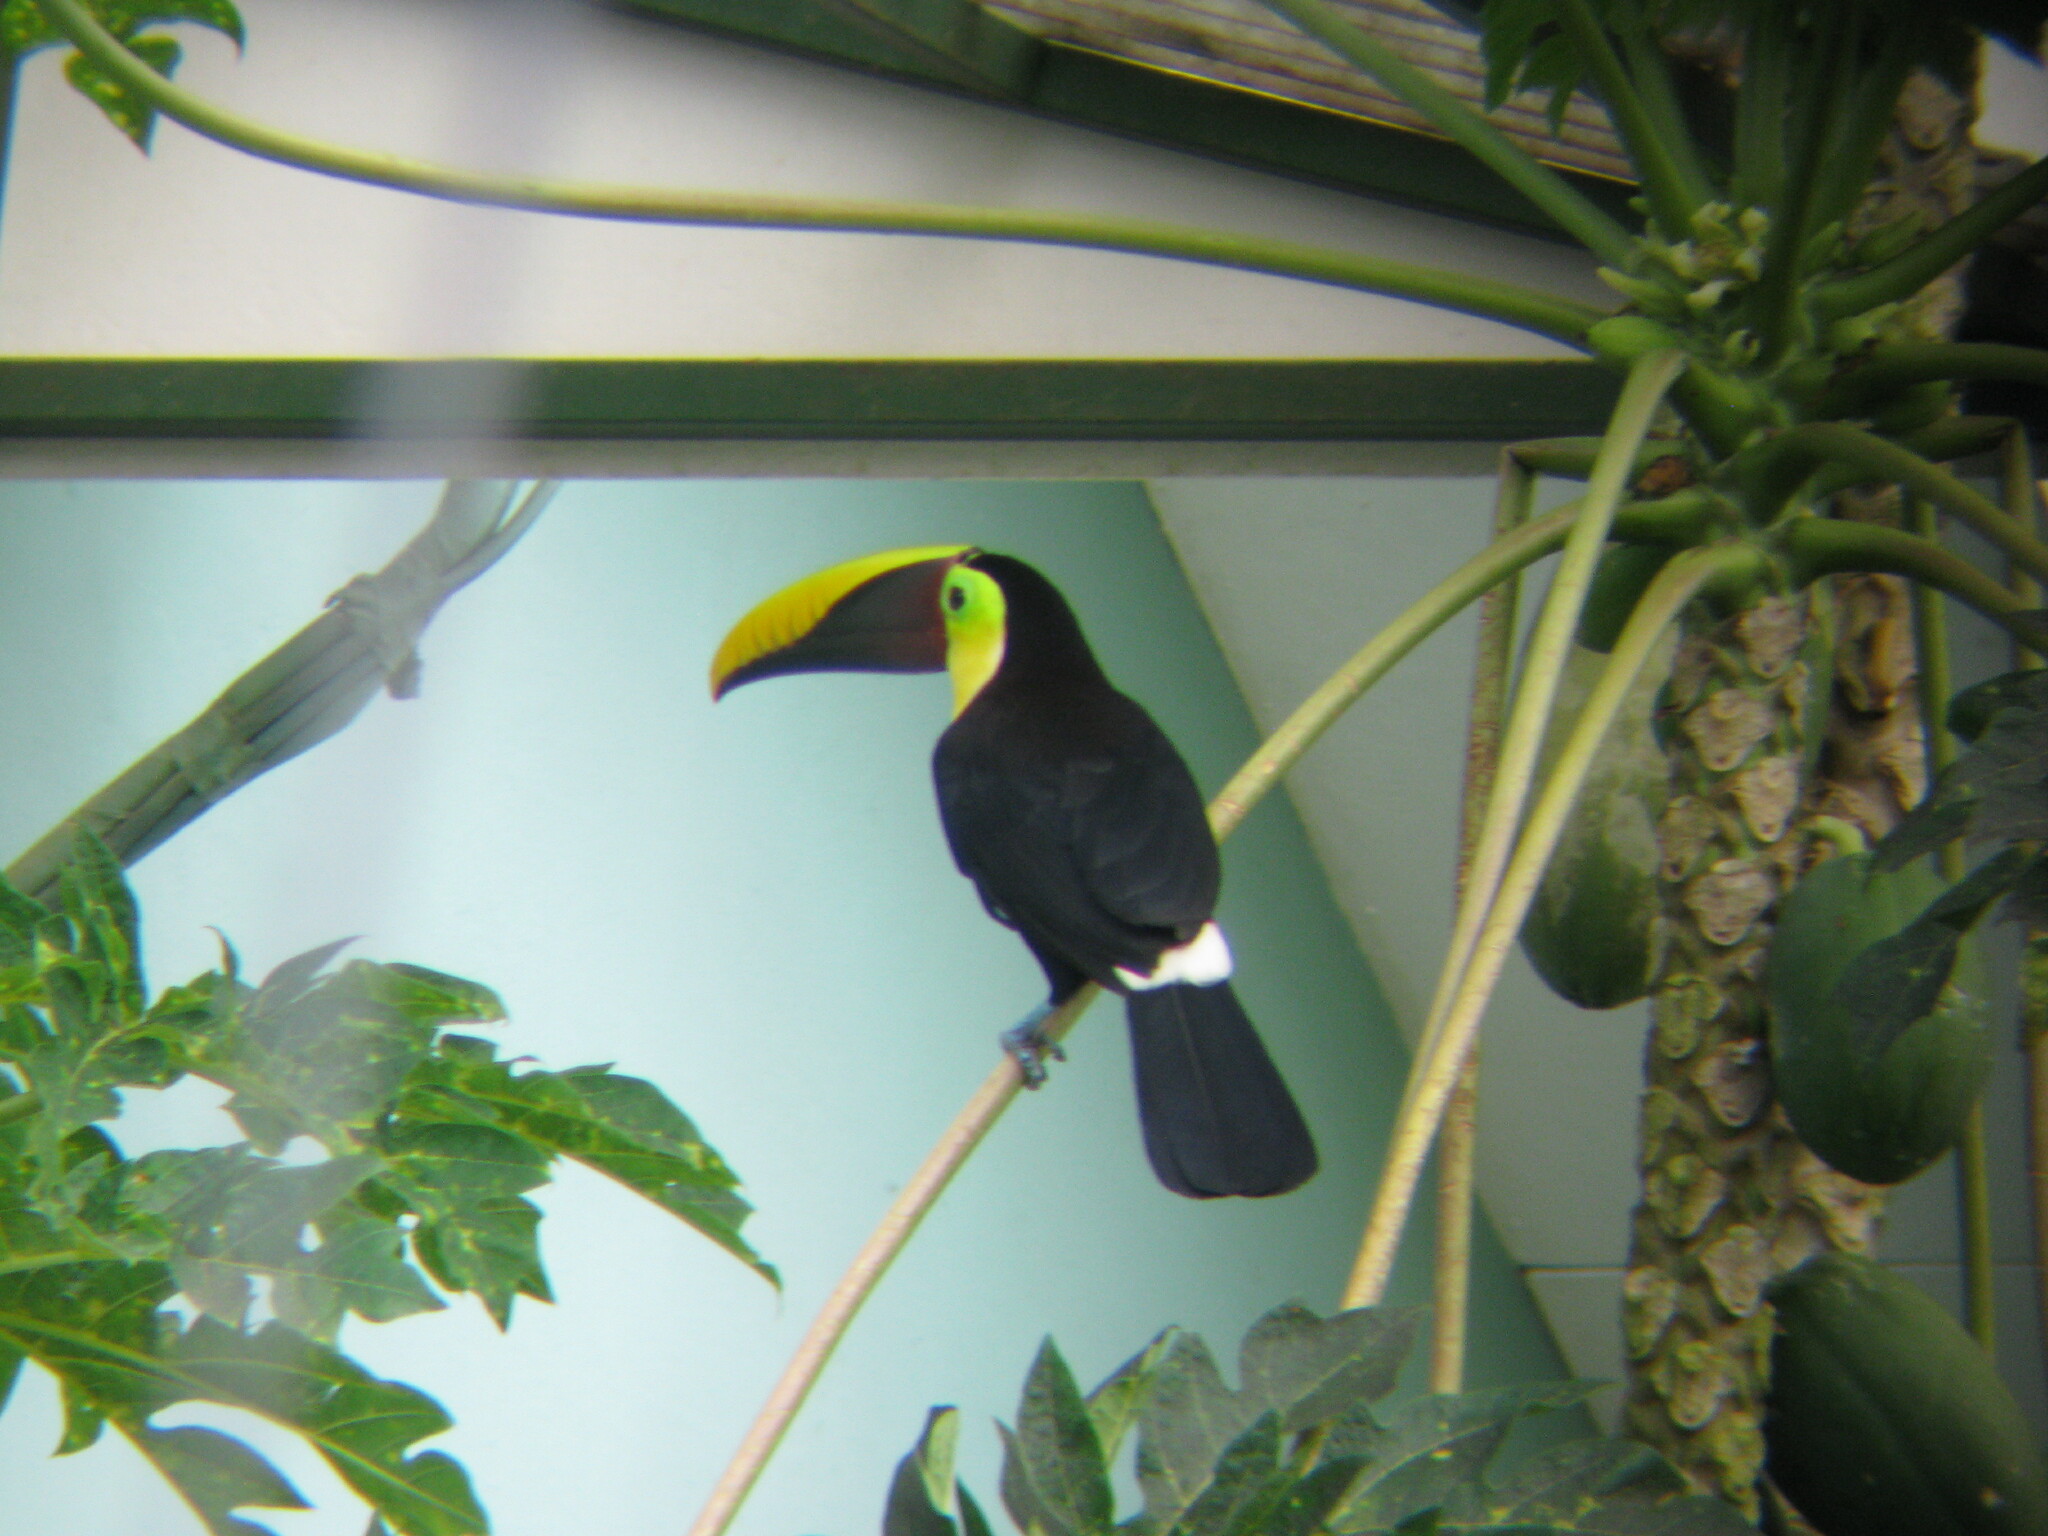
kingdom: Animalia
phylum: Chordata
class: Aves
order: Piciformes
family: Ramphastidae
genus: Ramphastos
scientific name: Ramphastos ambiguus
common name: Yellow-throated toucan
